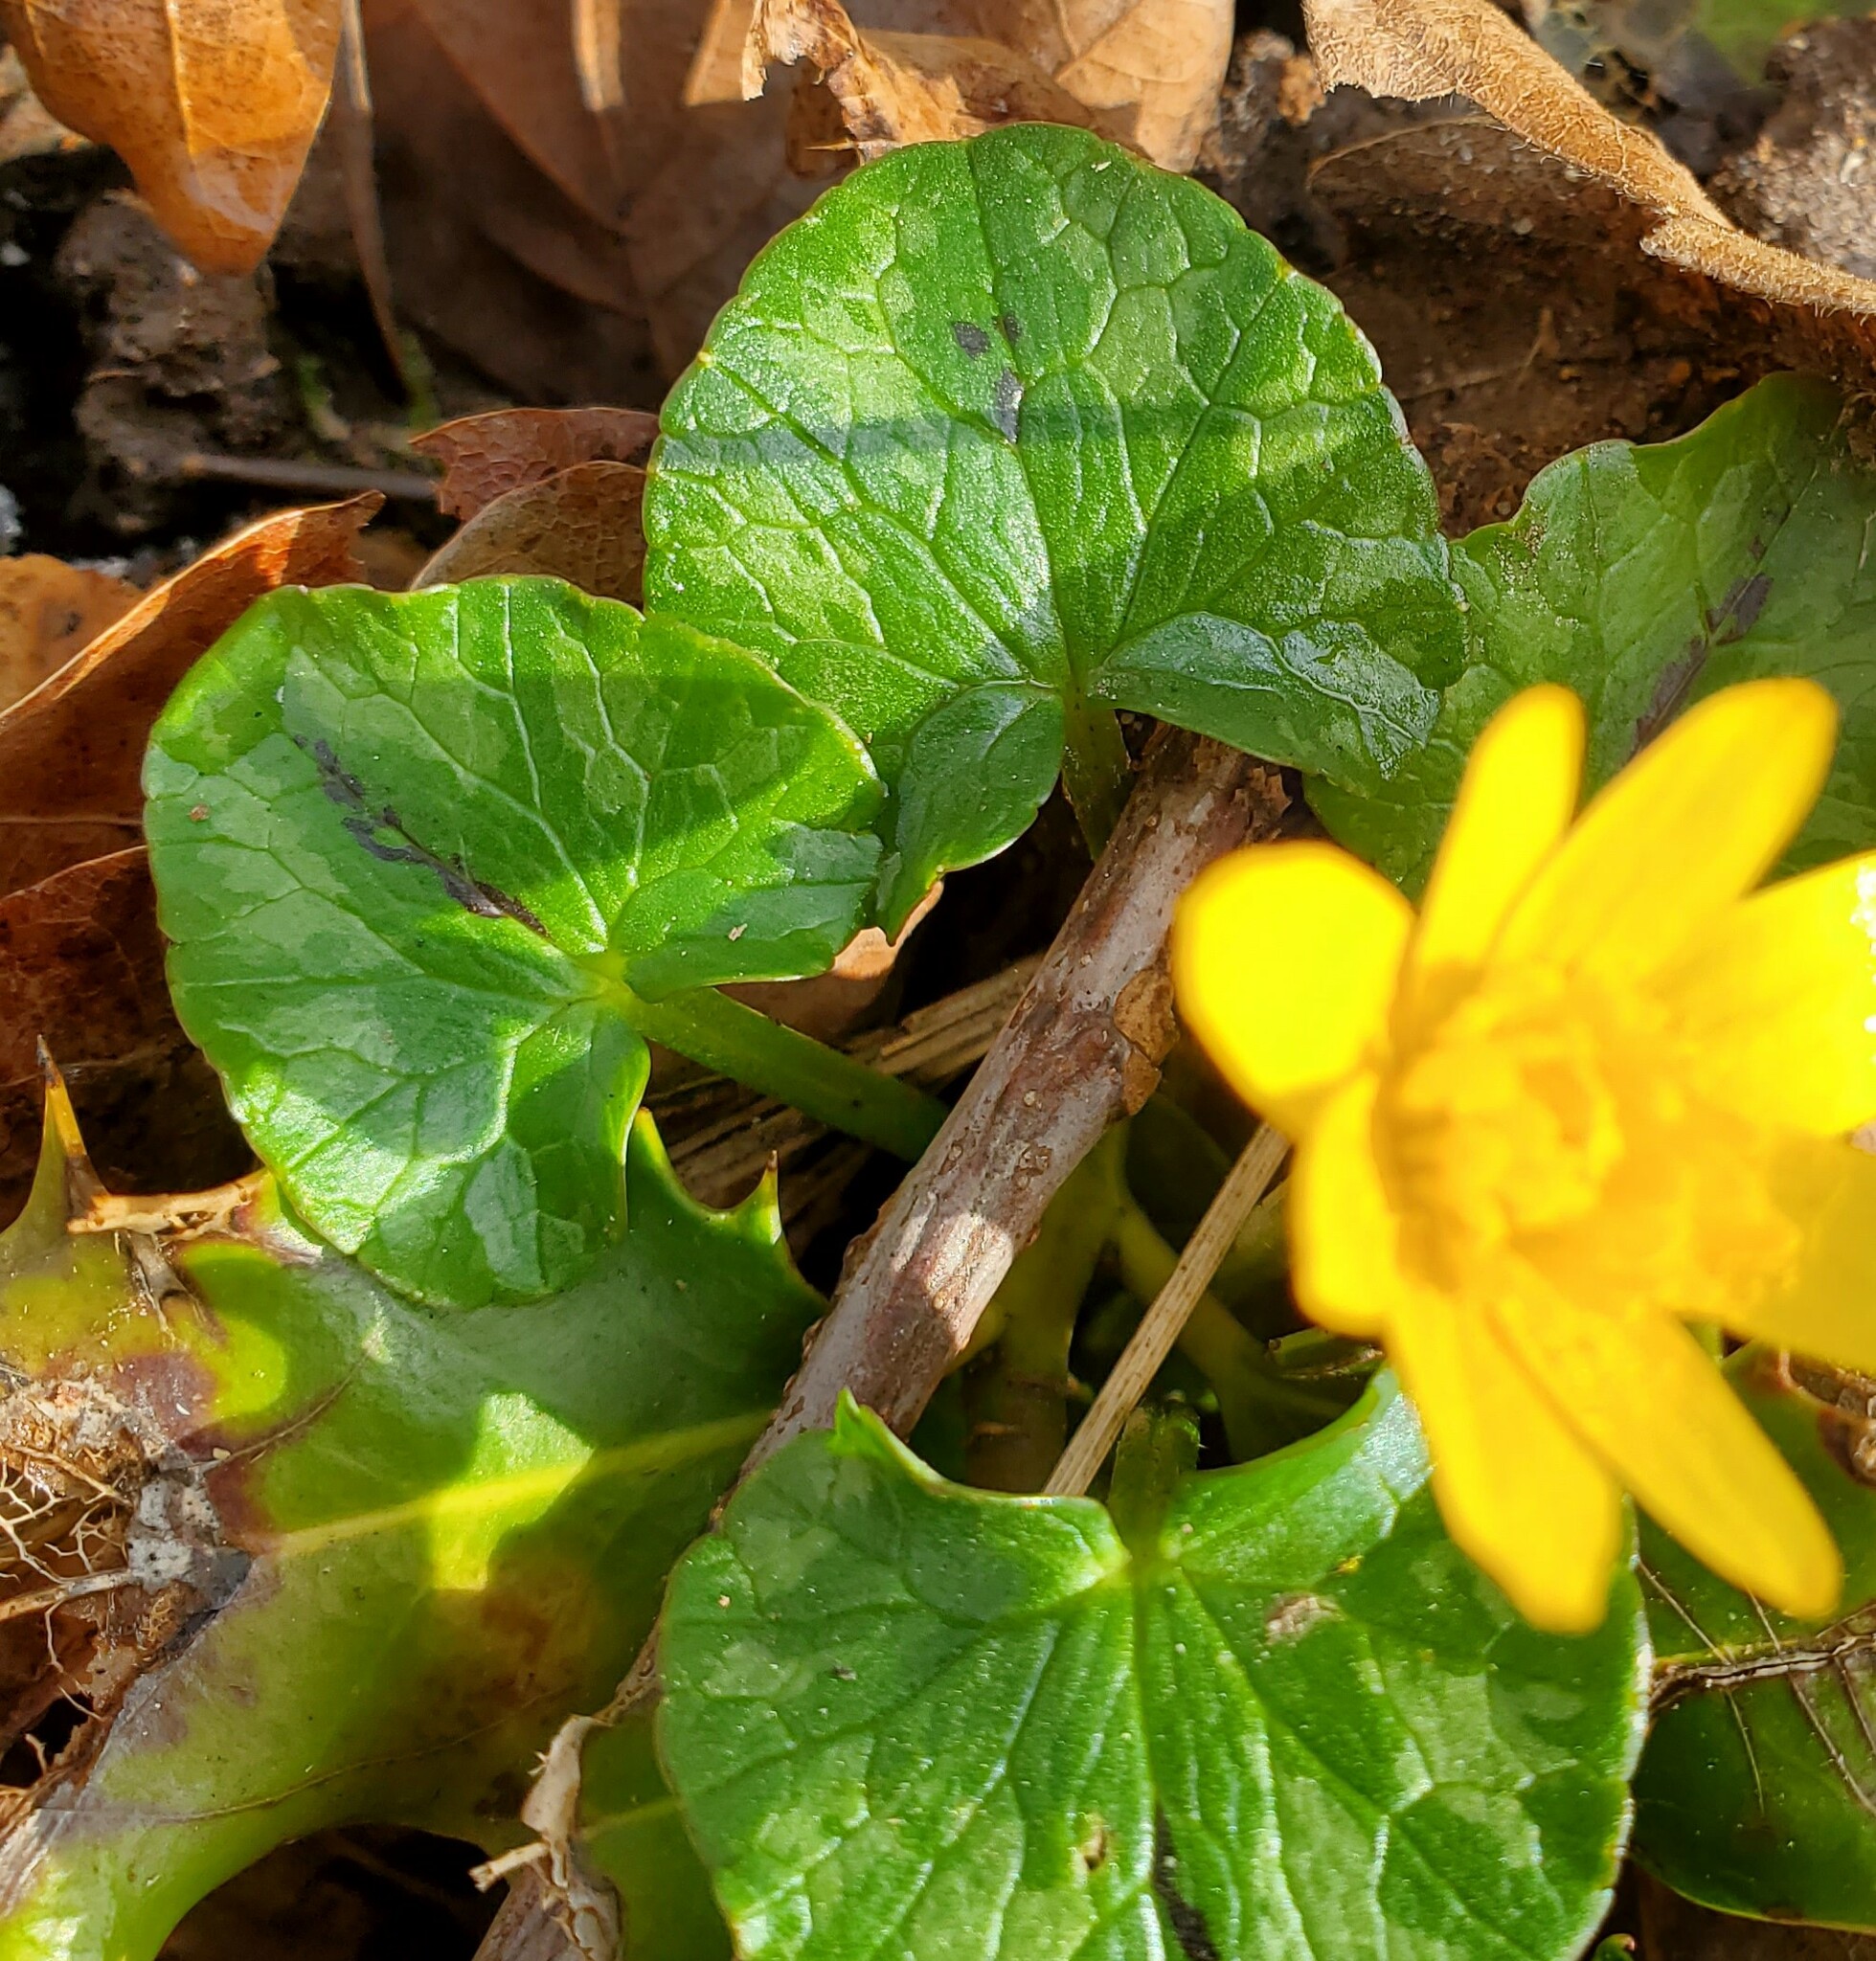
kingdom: Plantae
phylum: Tracheophyta
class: Magnoliopsida
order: Ranunculales
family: Ranunculaceae
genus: Ficaria
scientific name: Ficaria verna
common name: Lesser celandine
